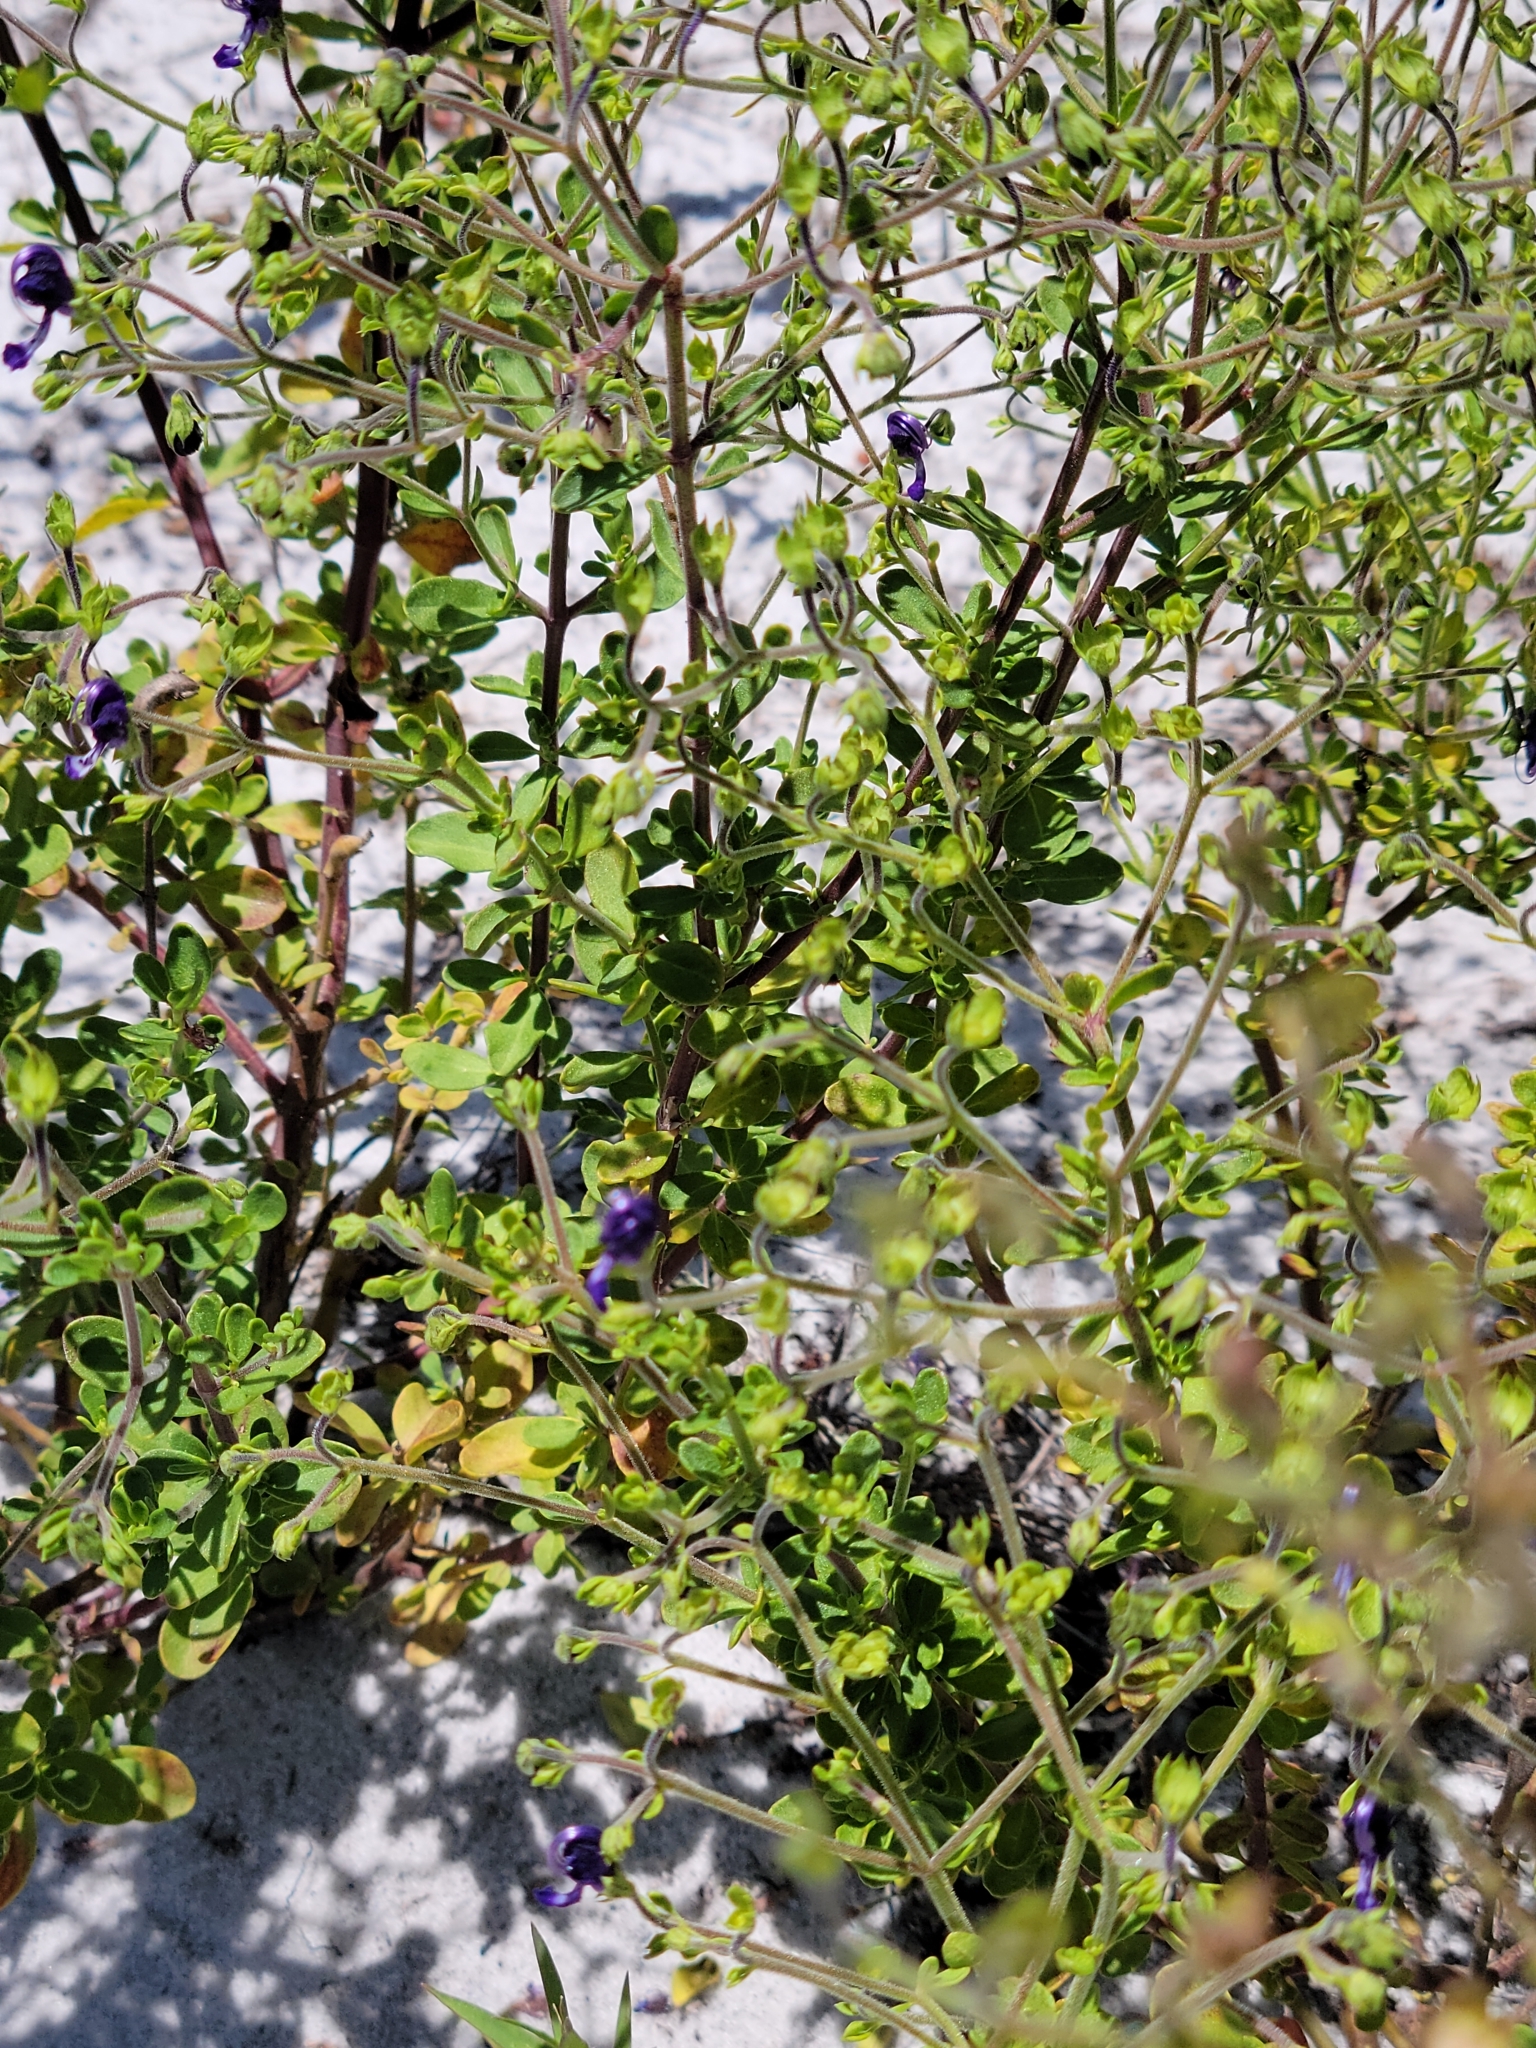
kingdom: Plantae
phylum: Tracheophyta
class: Magnoliopsida
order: Lamiales
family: Lamiaceae
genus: Trichostema
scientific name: Trichostema bridgesii-orzellii
